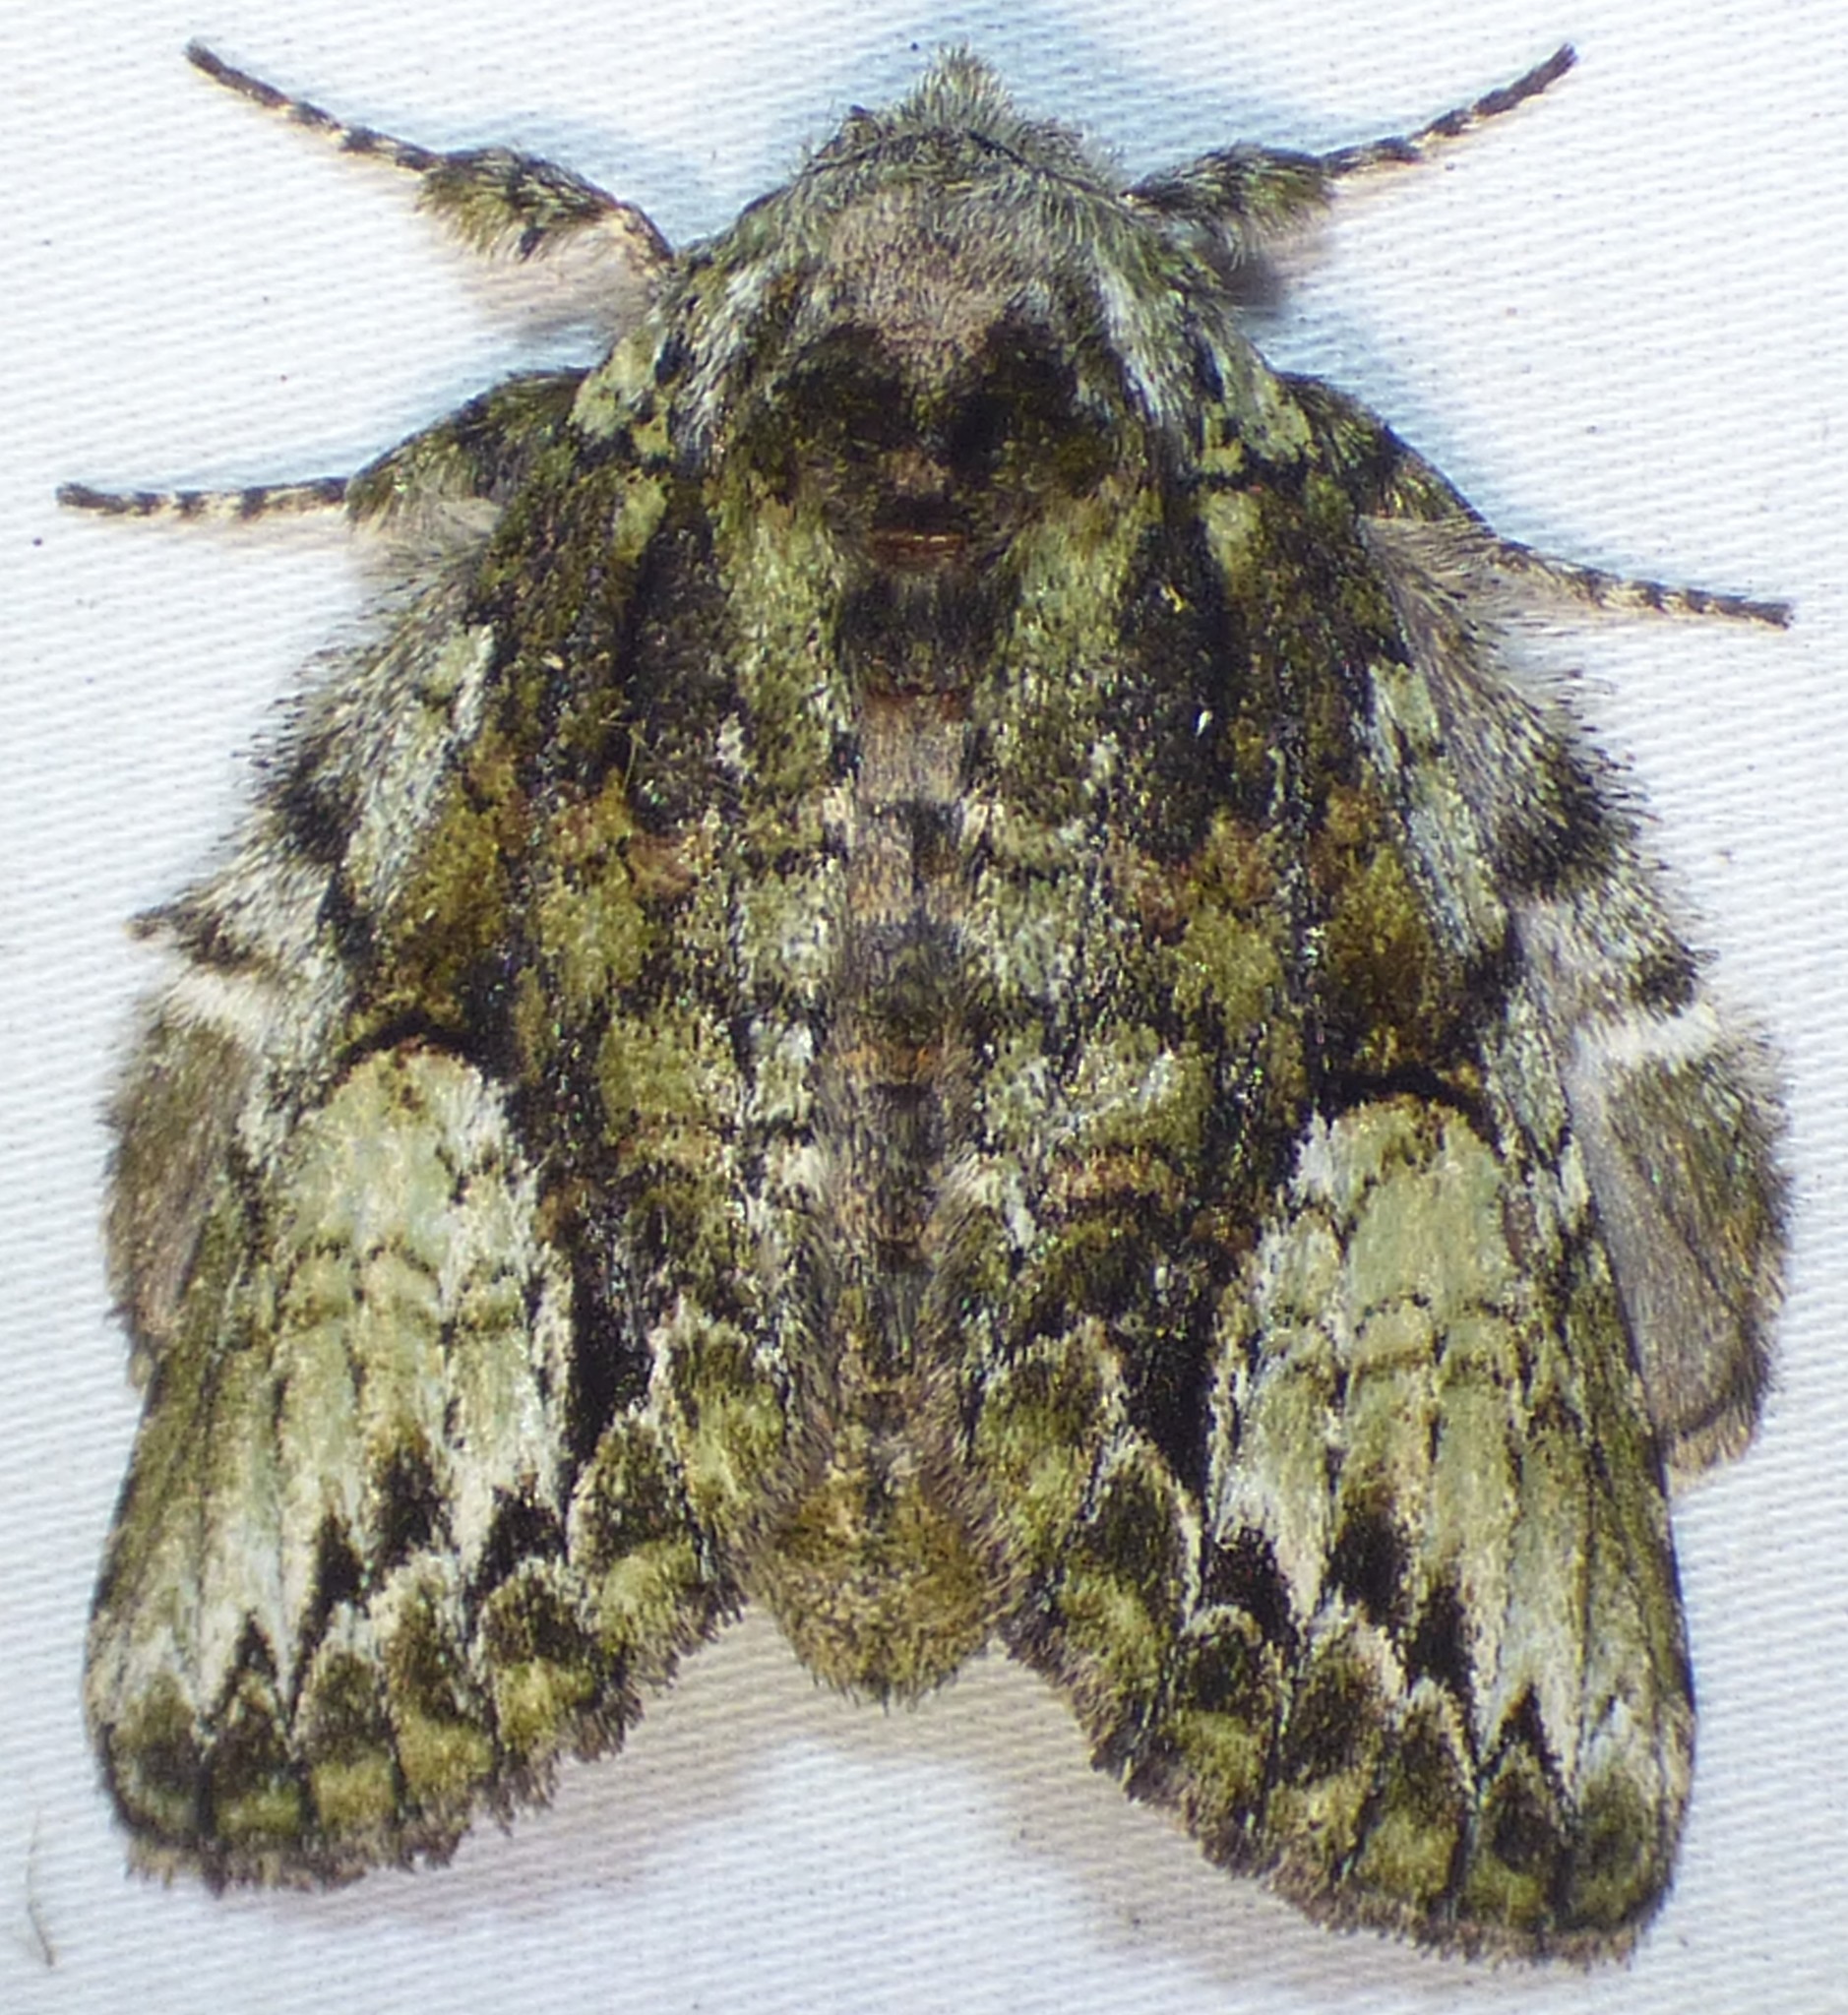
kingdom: Animalia
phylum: Arthropoda
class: Insecta
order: Lepidoptera
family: Notodontidae
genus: Heterocampa
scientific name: Heterocampa
